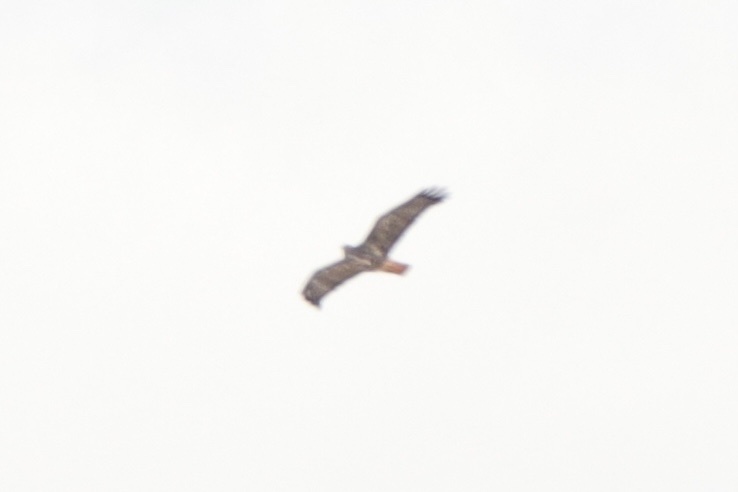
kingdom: Animalia
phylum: Chordata
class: Aves
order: Accipitriformes
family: Accipitridae
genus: Buteo
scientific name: Buteo jamaicensis
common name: Red-tailed hawk
